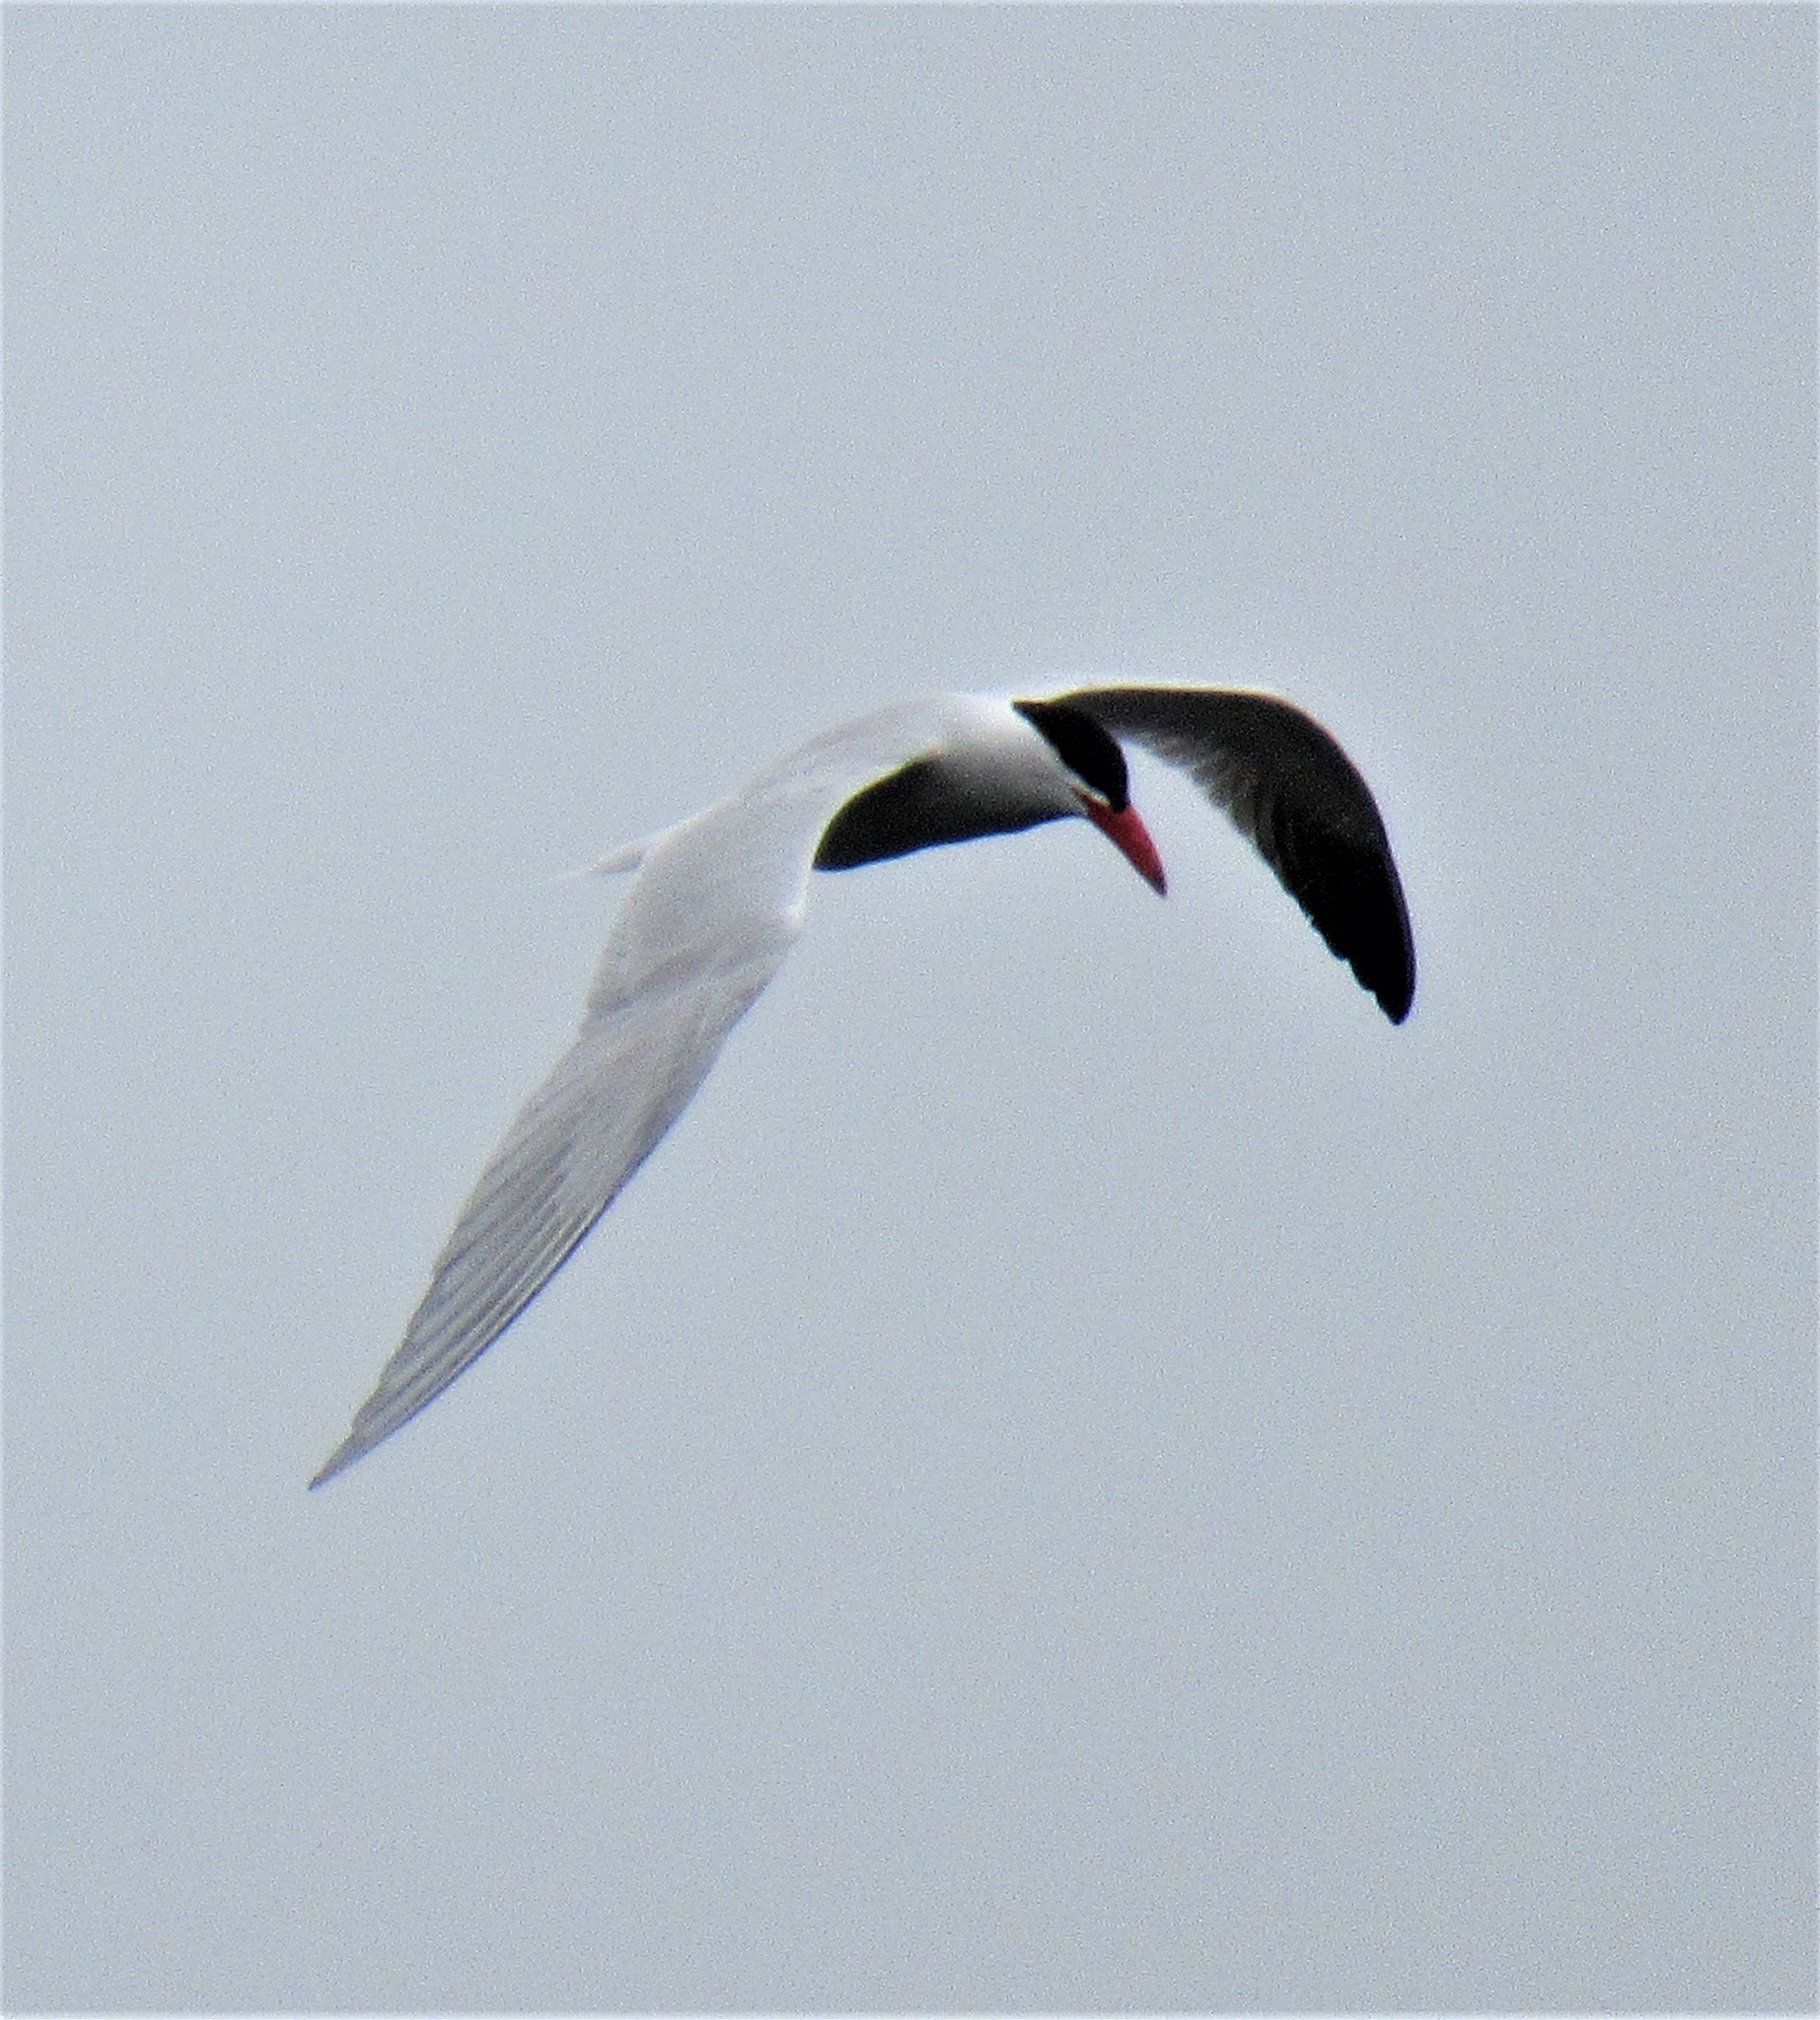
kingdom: Animalia
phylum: Chordata
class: Aves
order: Charadriiformes
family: Laridae
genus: Hydroprogne
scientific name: Hydroprogne caspia
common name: Caspian tern
